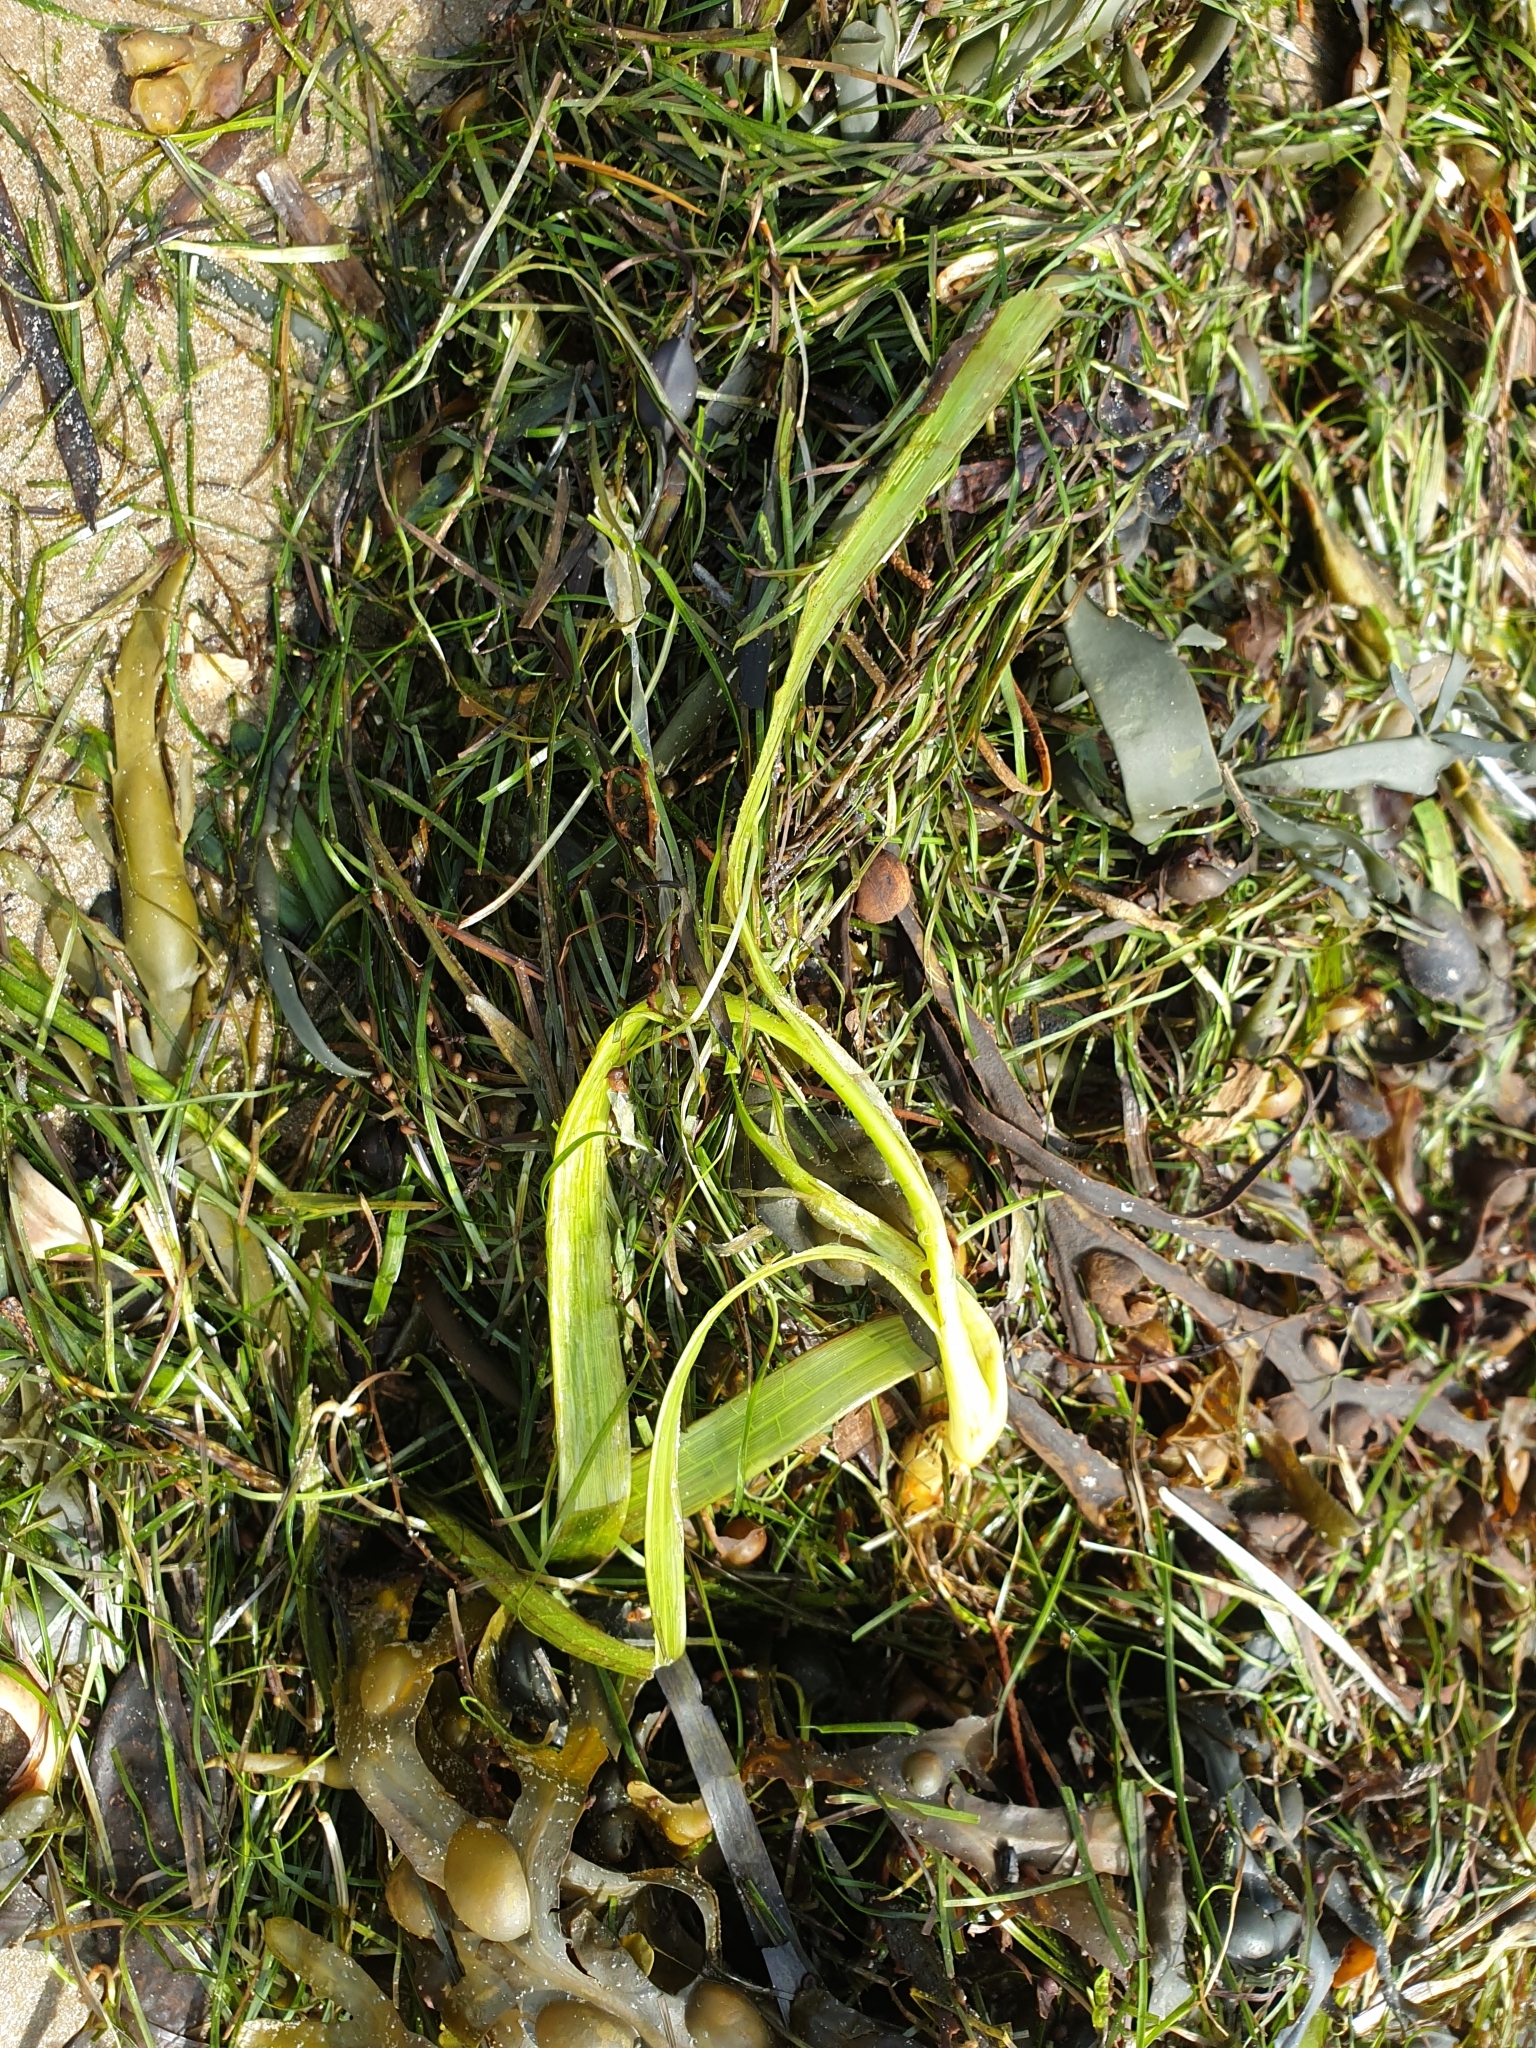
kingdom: Plantae
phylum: Tracheophyta
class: Liliopsida
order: Alismatales
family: Zosteraceae
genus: Zostera
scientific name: Zostera marina
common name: Eelgrass
